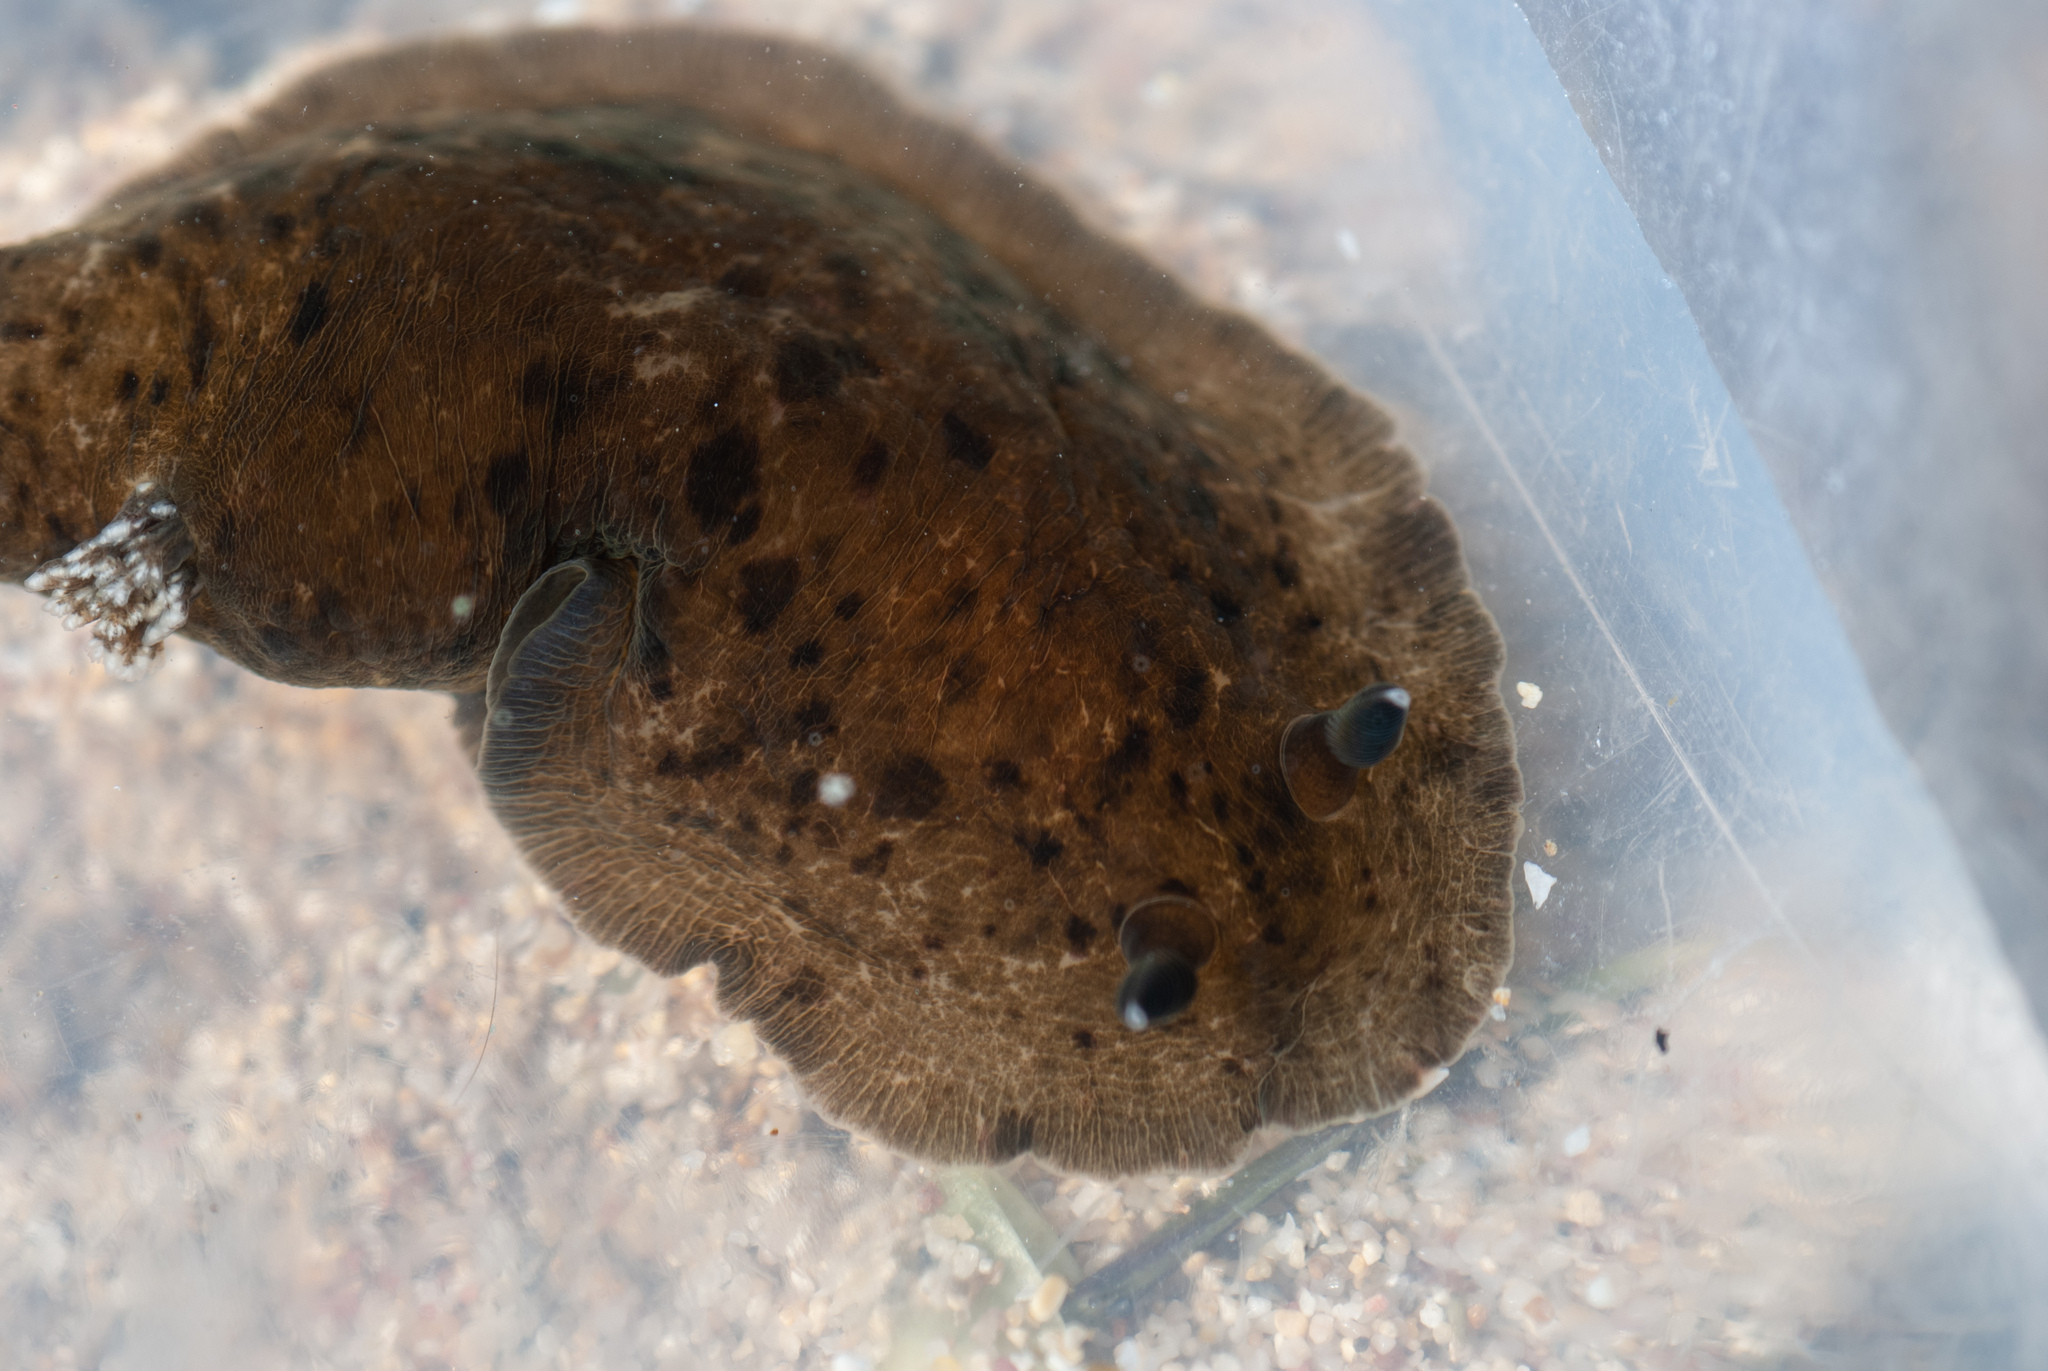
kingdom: Animalia
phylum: Mollusca
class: Gastropoda
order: Nudibranchia
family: Dendrodorididae
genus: Dendrodoris
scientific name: Dendrodoris krebsii
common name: Slimy doris
